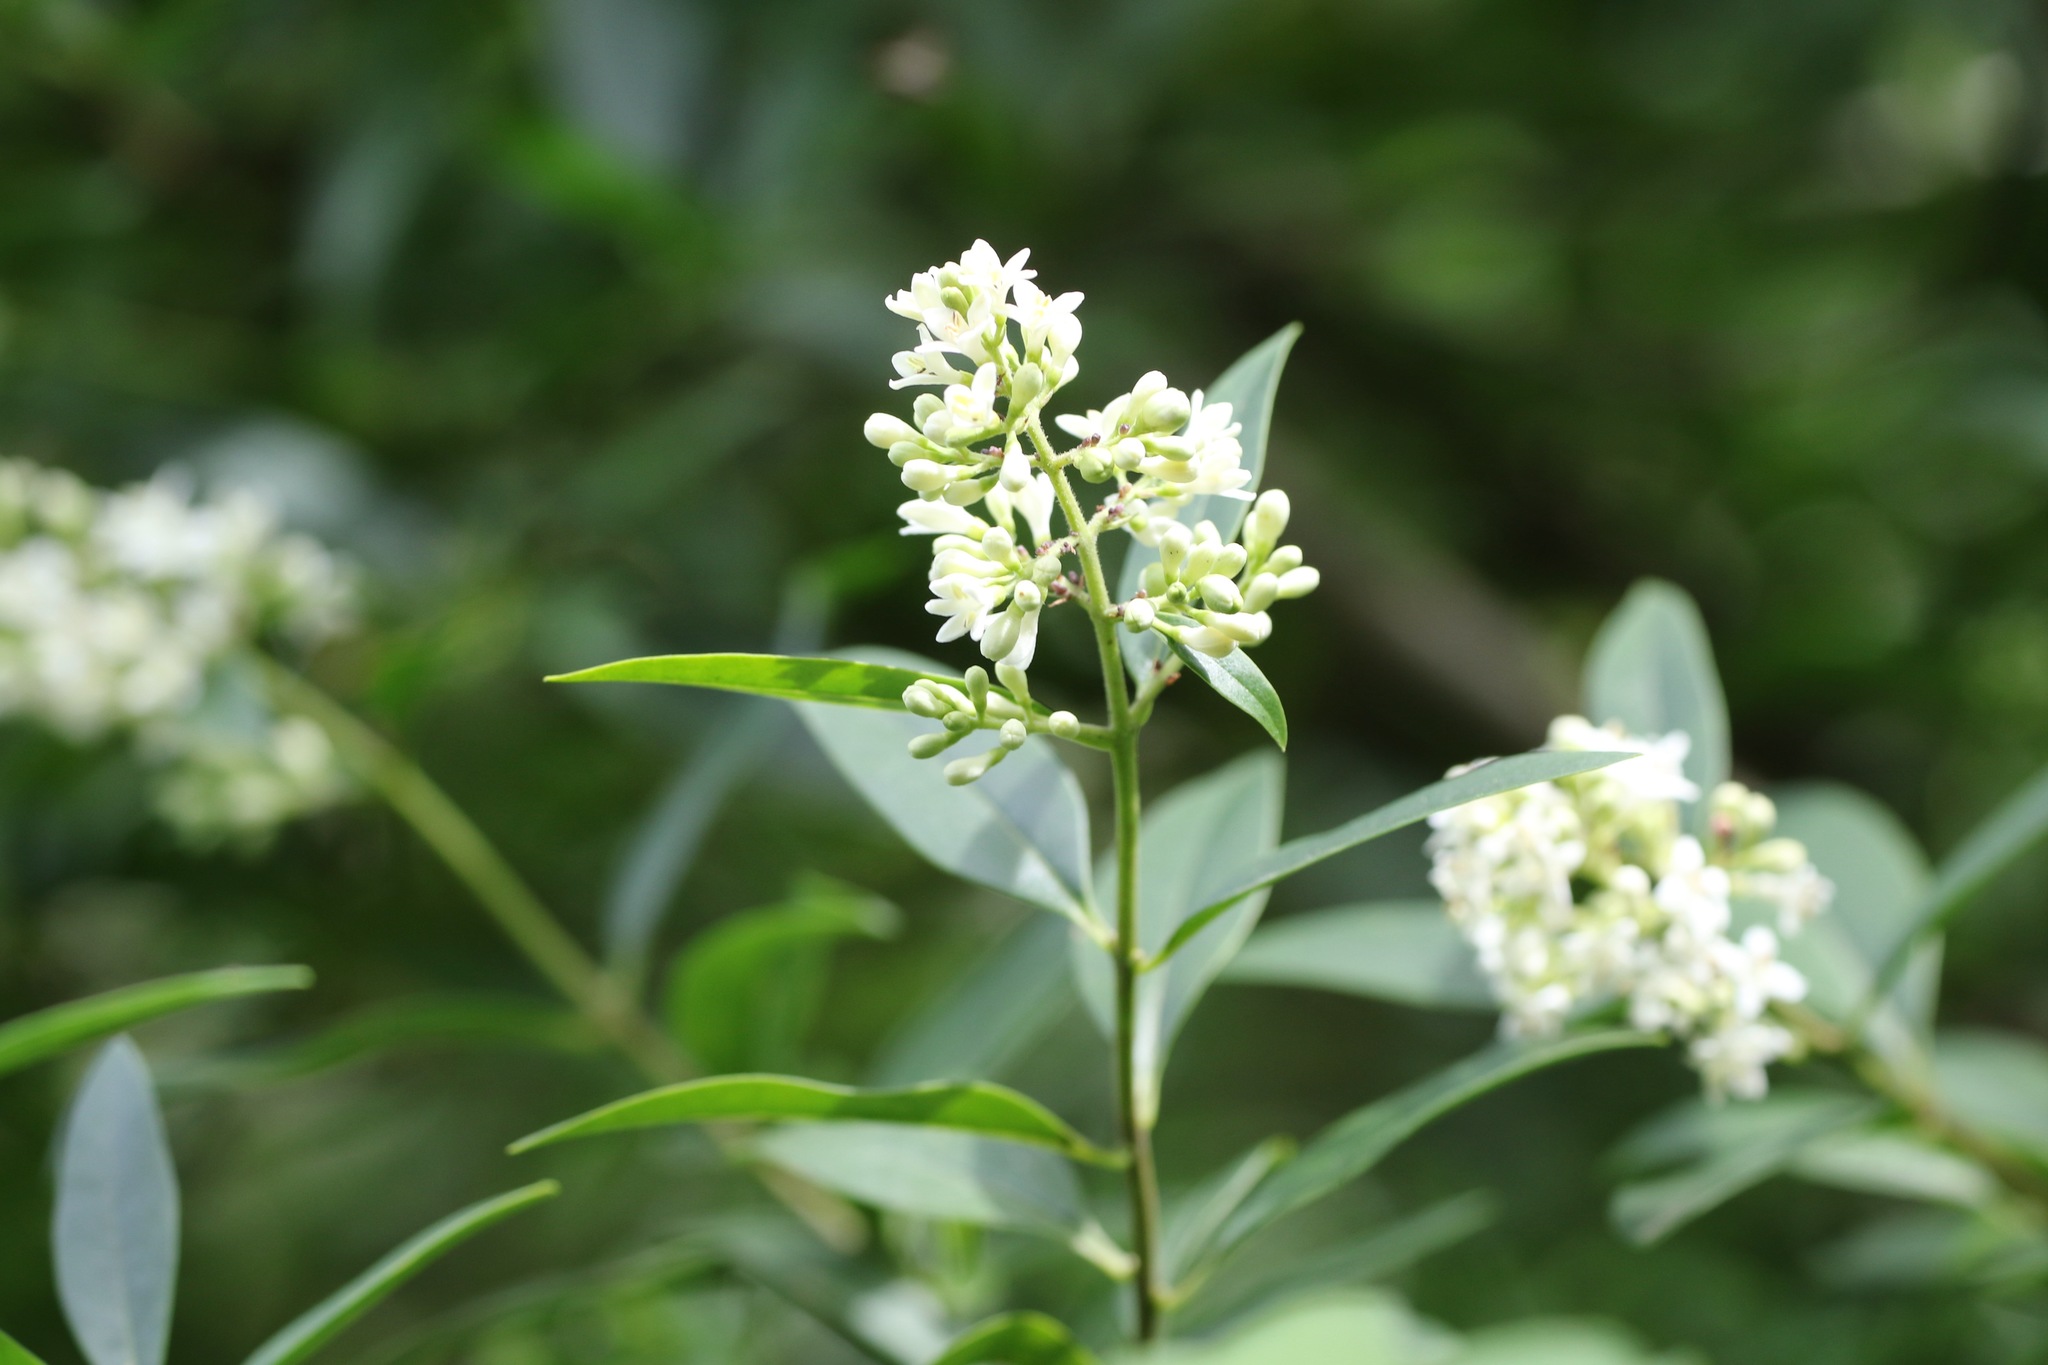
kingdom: Plantae
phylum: Tracheophyta
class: Magnoliopsida
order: Lamiales
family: Oleaceae
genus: Ligustrum
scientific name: Ligustrum vulgare
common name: Wild privet
